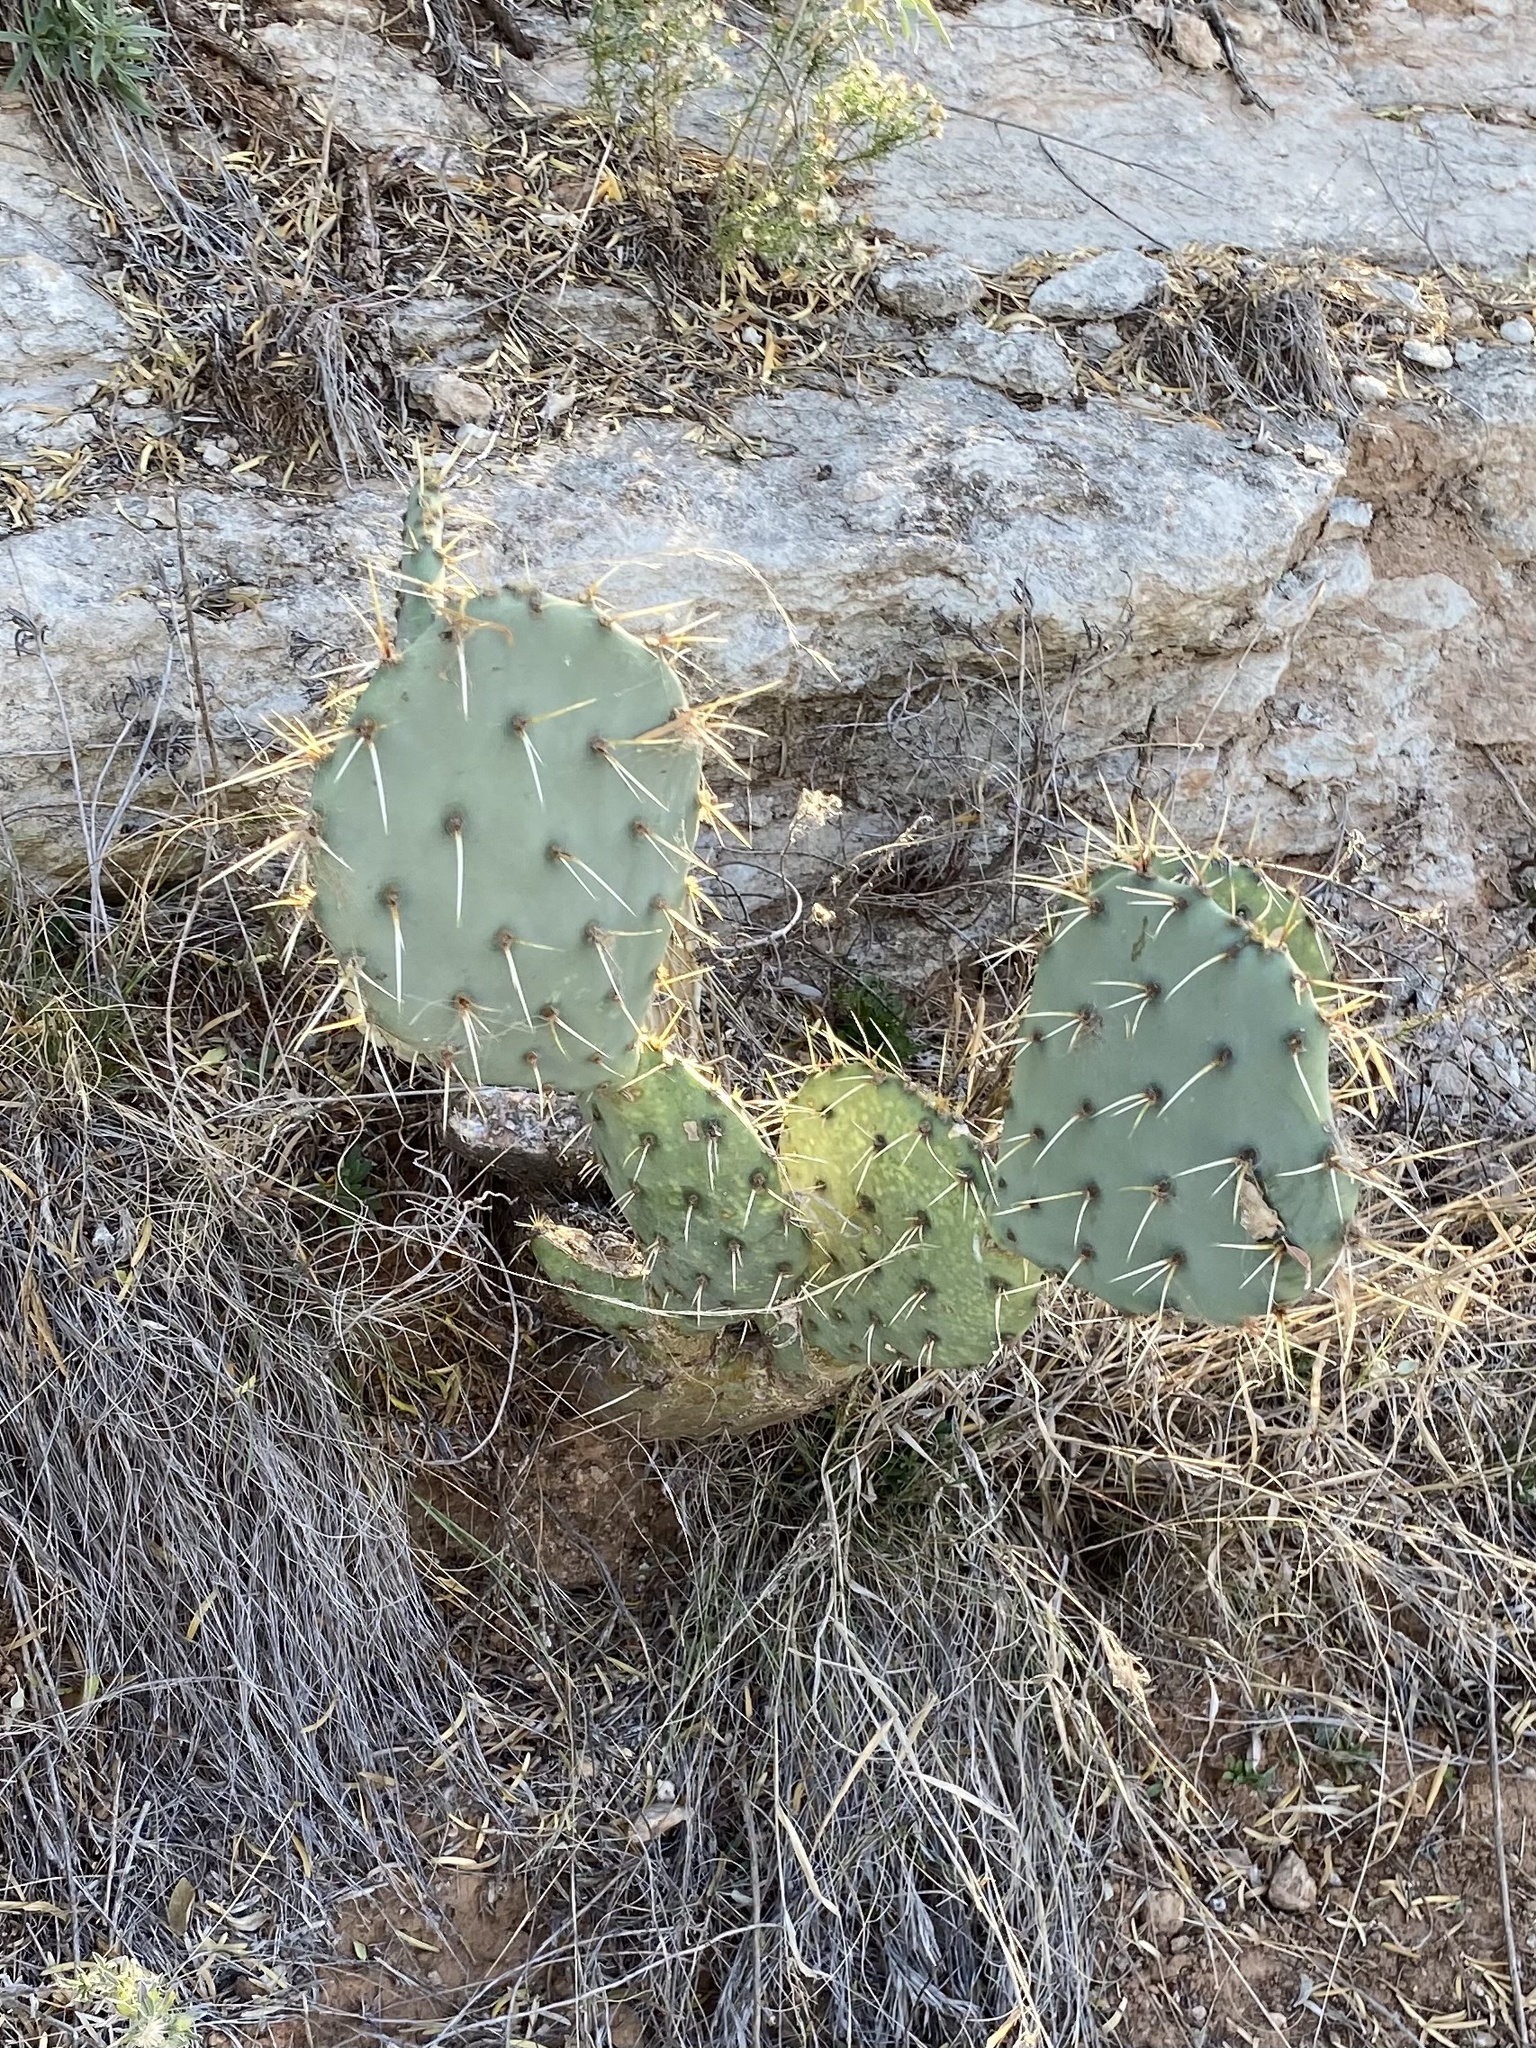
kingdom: Plantae
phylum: Tracheophyta
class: Magnoliopsida
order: Caryophyllales
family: Cactaceae
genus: Opuntia
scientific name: Opuntia engelmannii
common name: Cactus-apple
